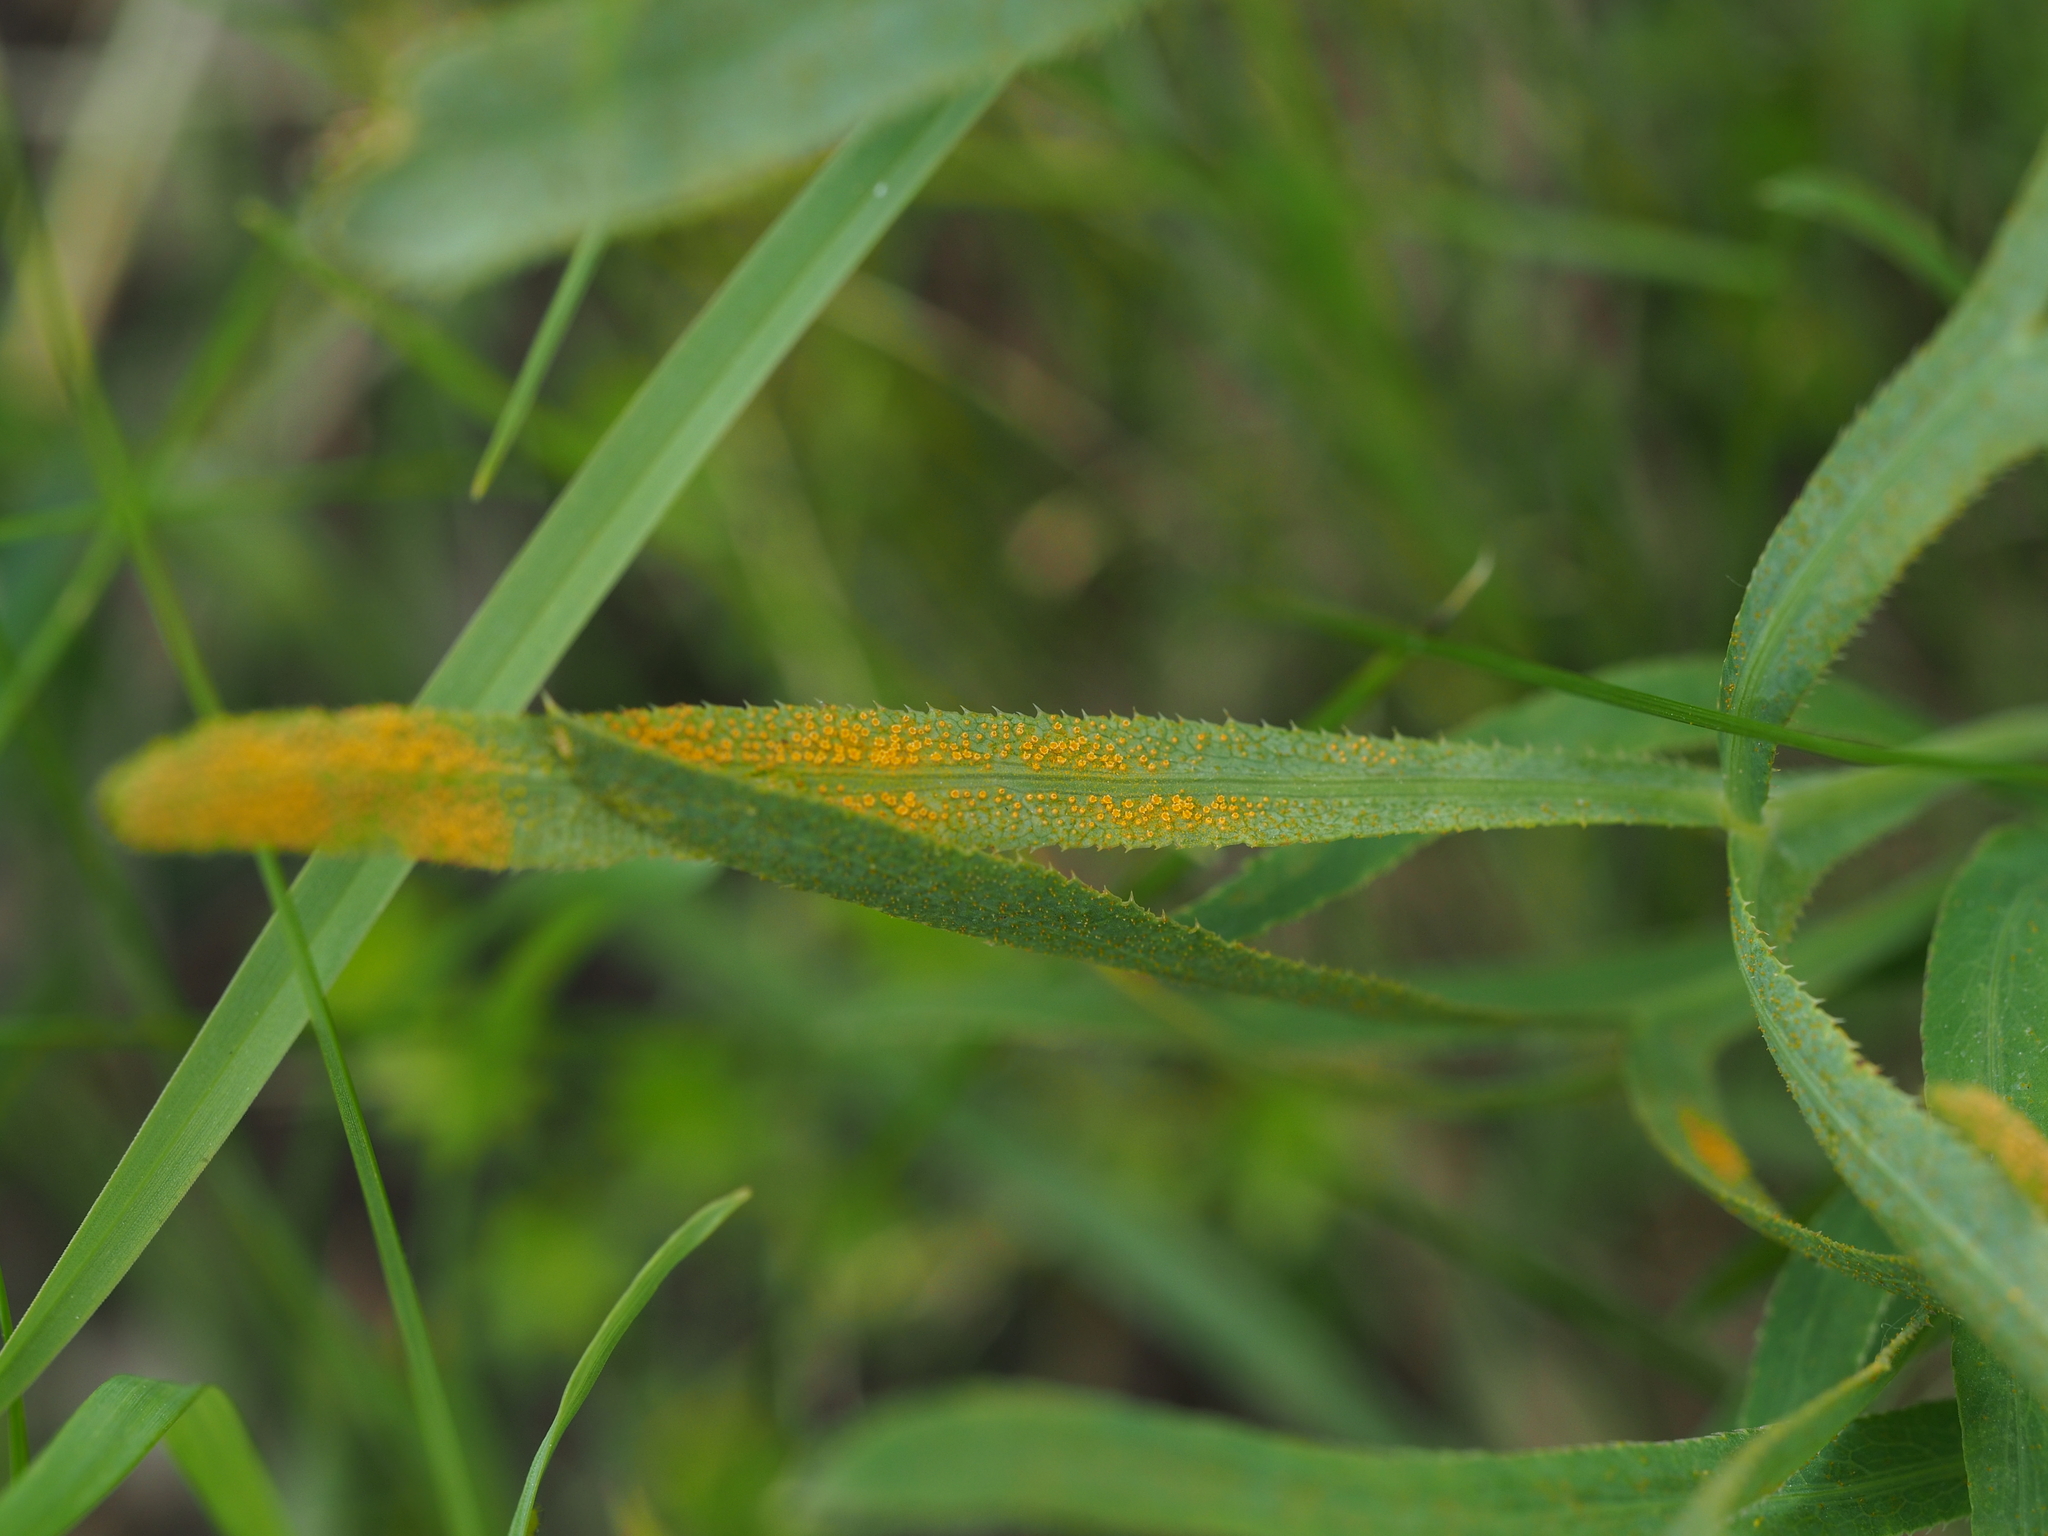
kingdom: Fungi
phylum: Basidiomycota
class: Pucciniomycetes
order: Pucciniales
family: Pucciniaceae
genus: Puccinia
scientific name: Puccinia sii-falcariae
